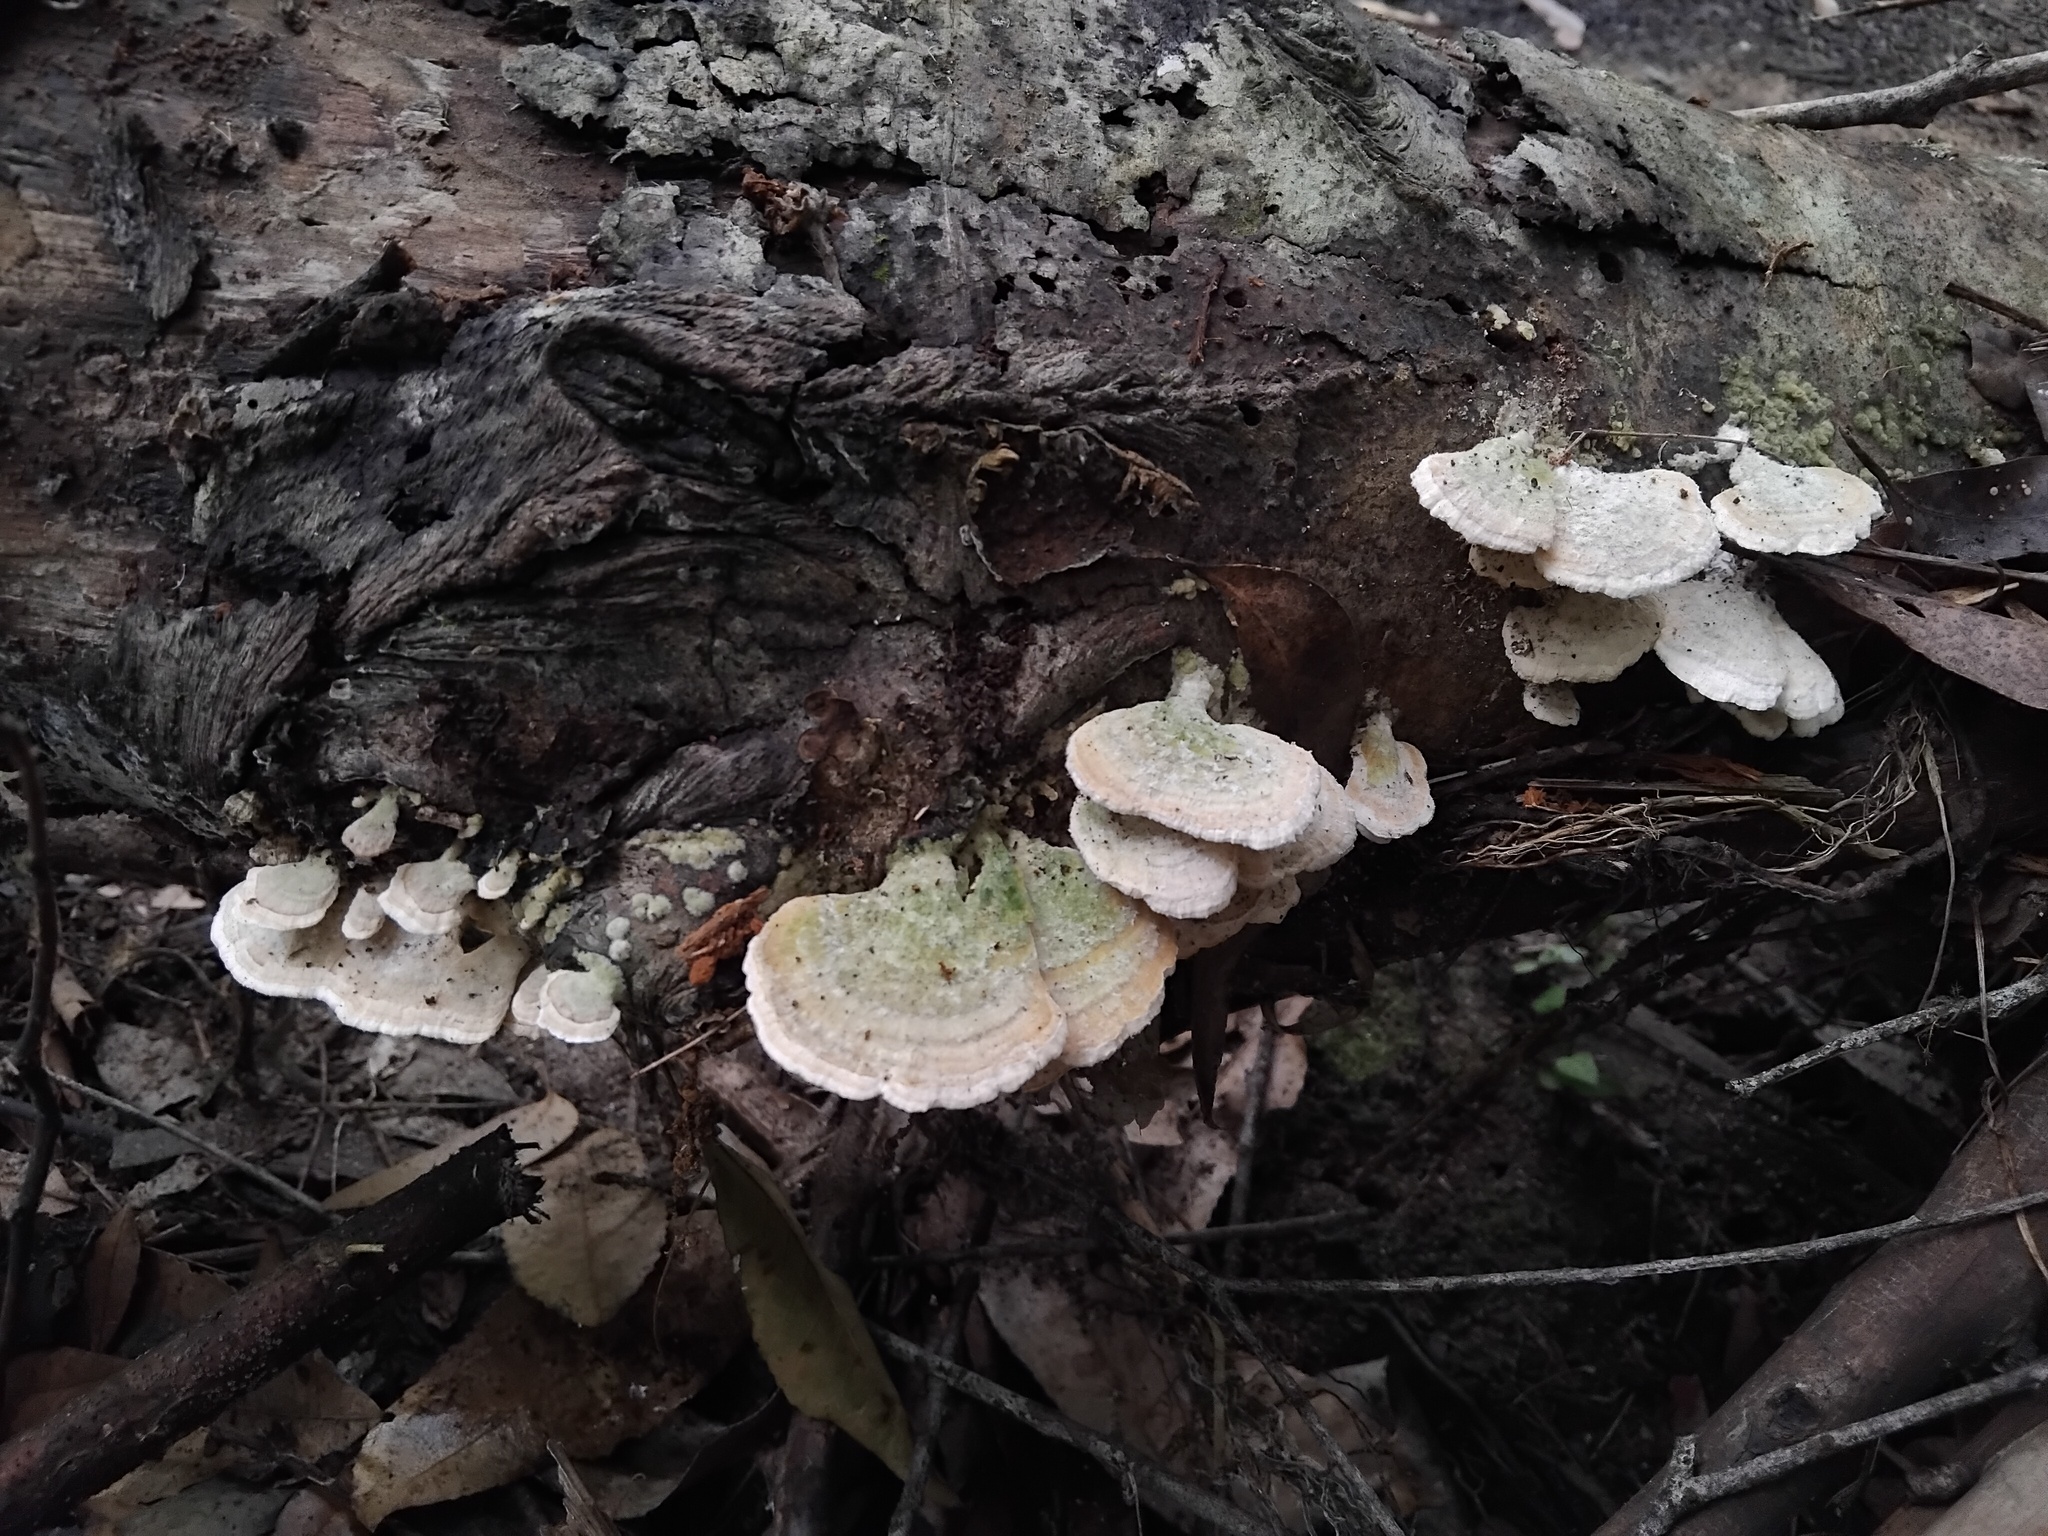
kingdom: Fungi
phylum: Basidiomycota
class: Agaricomycetes
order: Hymenochaetales
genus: Trichaptum
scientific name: Trichaptum biforme
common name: Violet-toothed polypore
